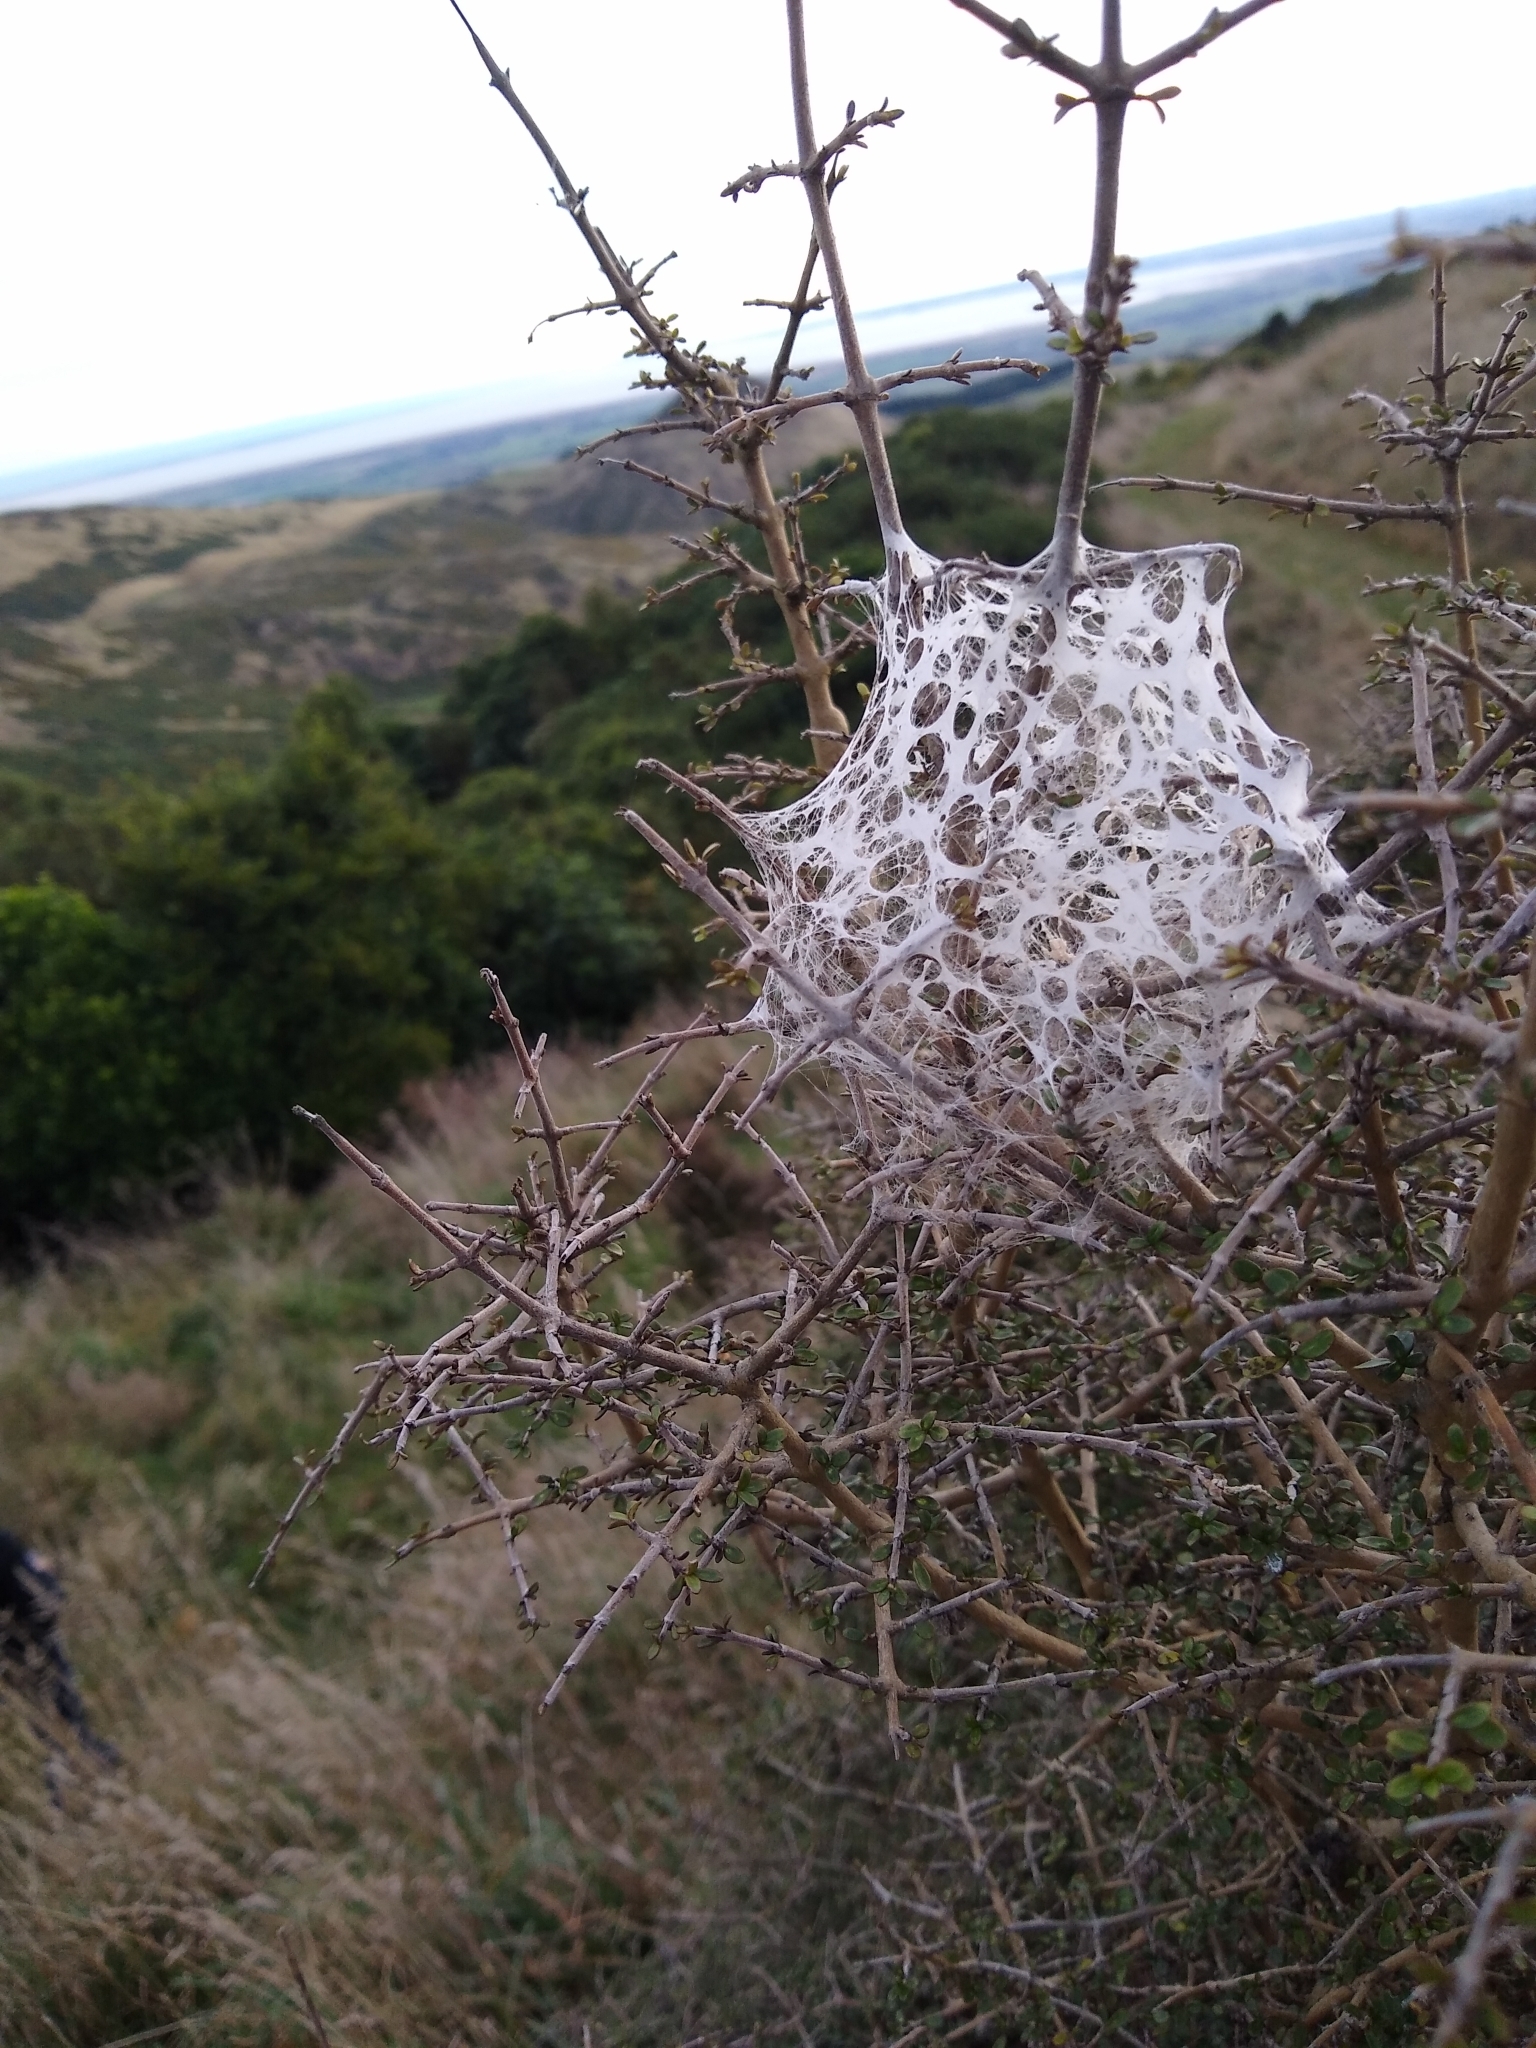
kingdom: Animalia
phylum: Arthropoda
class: Arachnida
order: Araneae
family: Pisauridae
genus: Dolomedes
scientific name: Dolomedes minor
